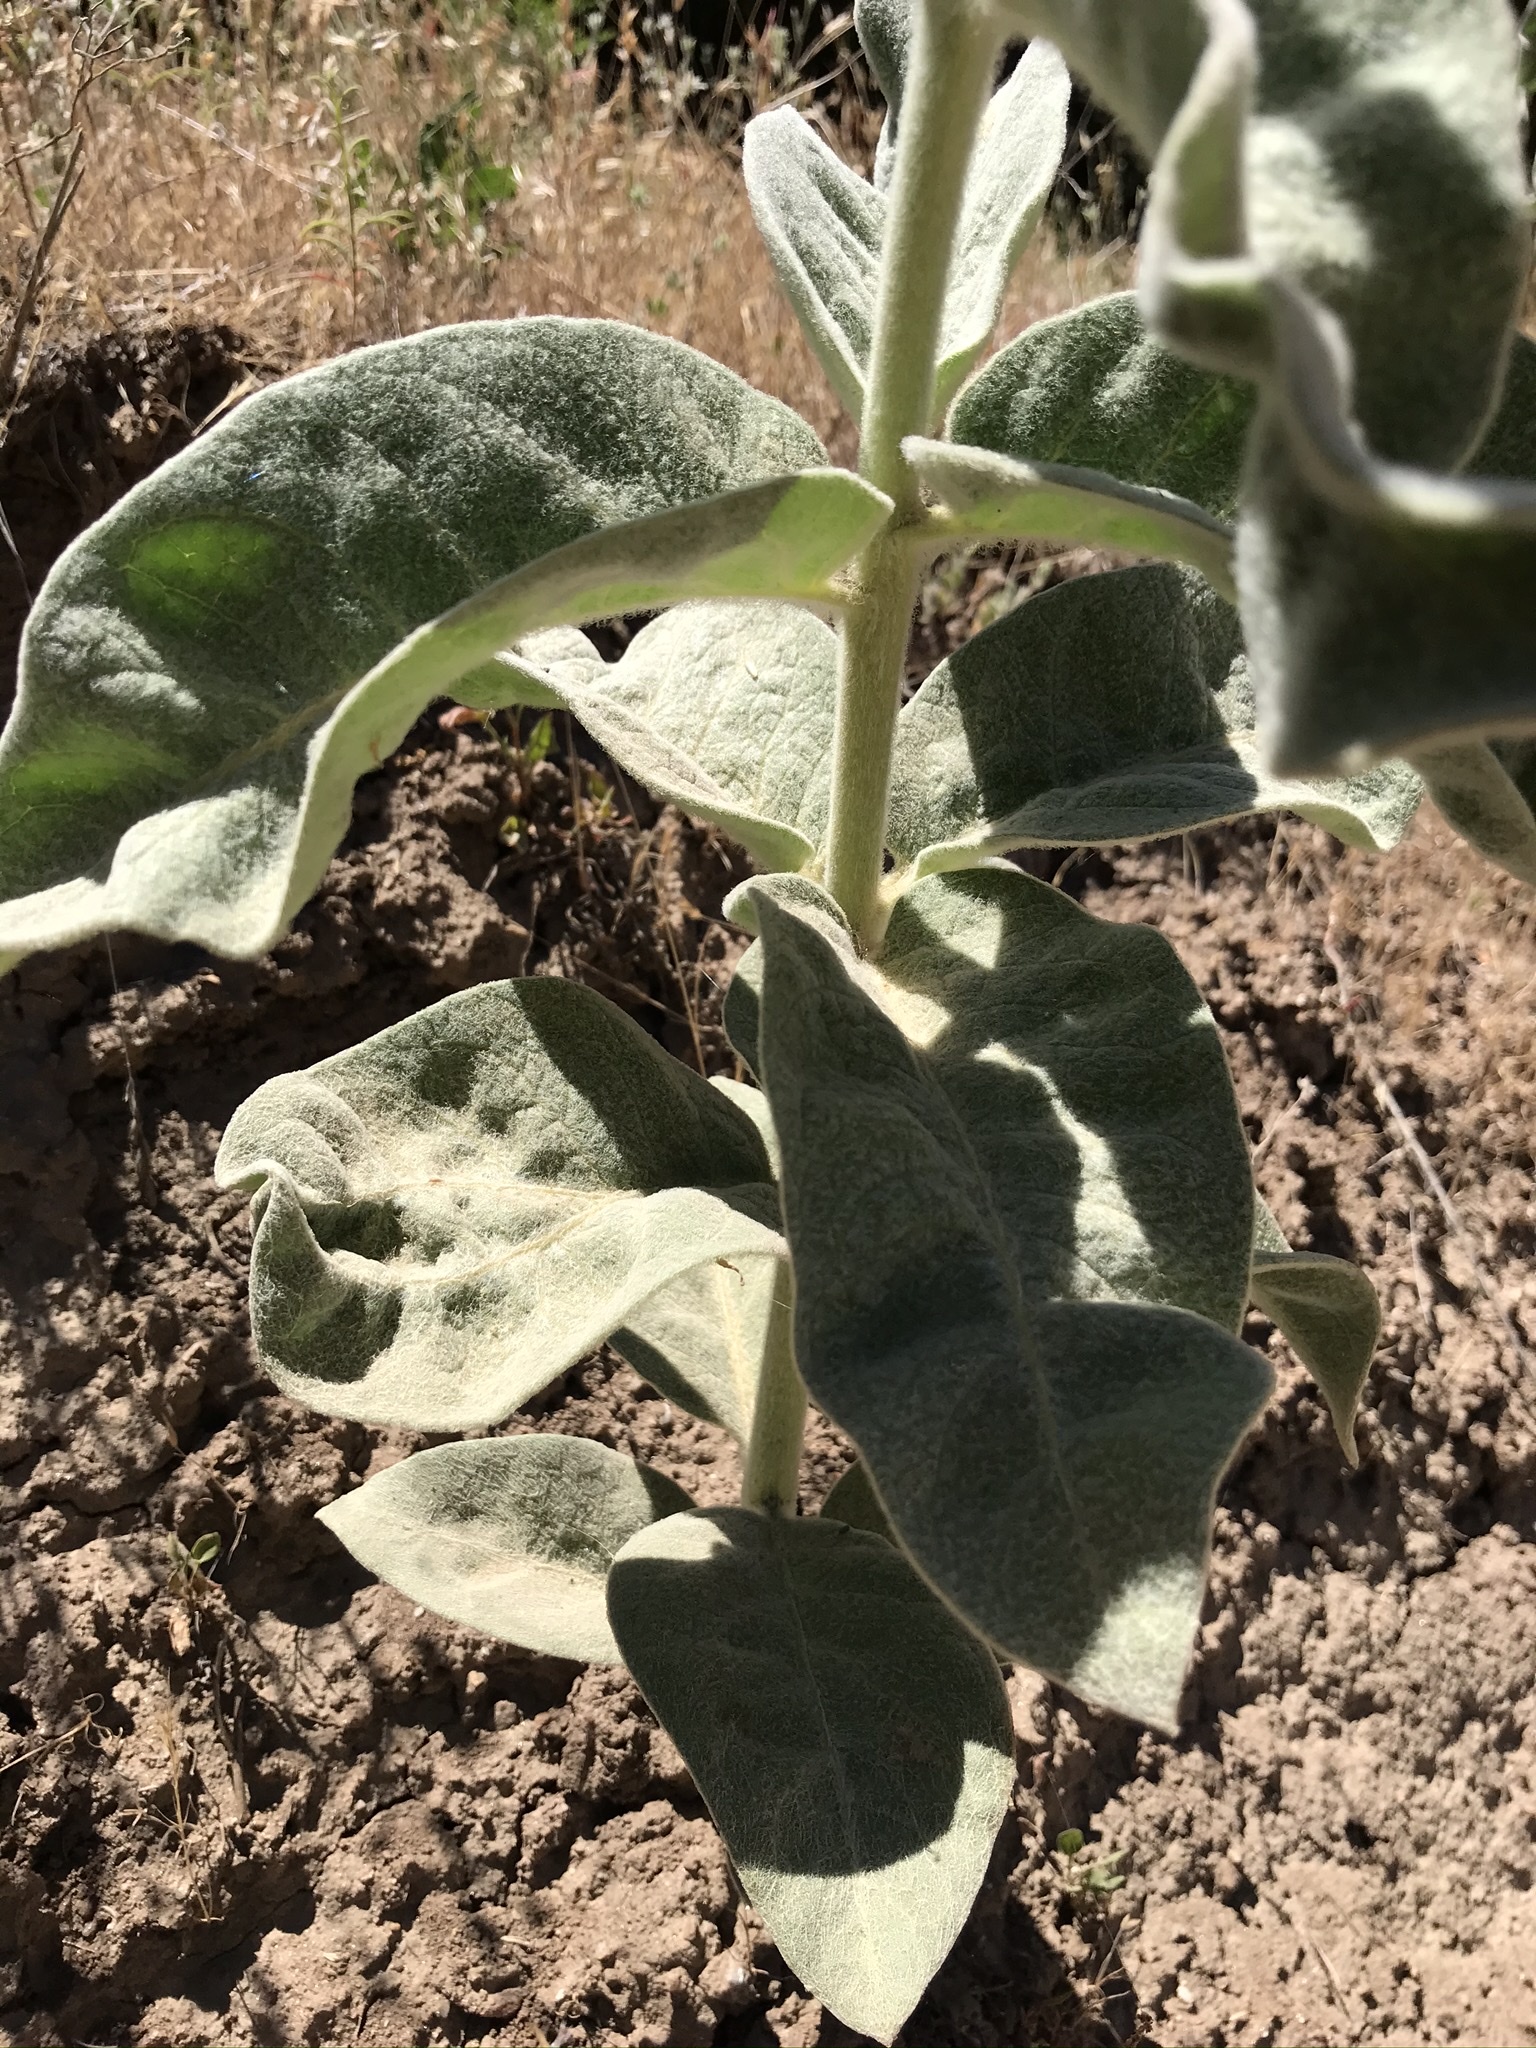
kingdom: Plantae
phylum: Tracheophyta
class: Magnoliopsida
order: Gentianales
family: Apocynaceae
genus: Asclepias
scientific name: Asclepias eriocarpa
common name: Indian milkweed
